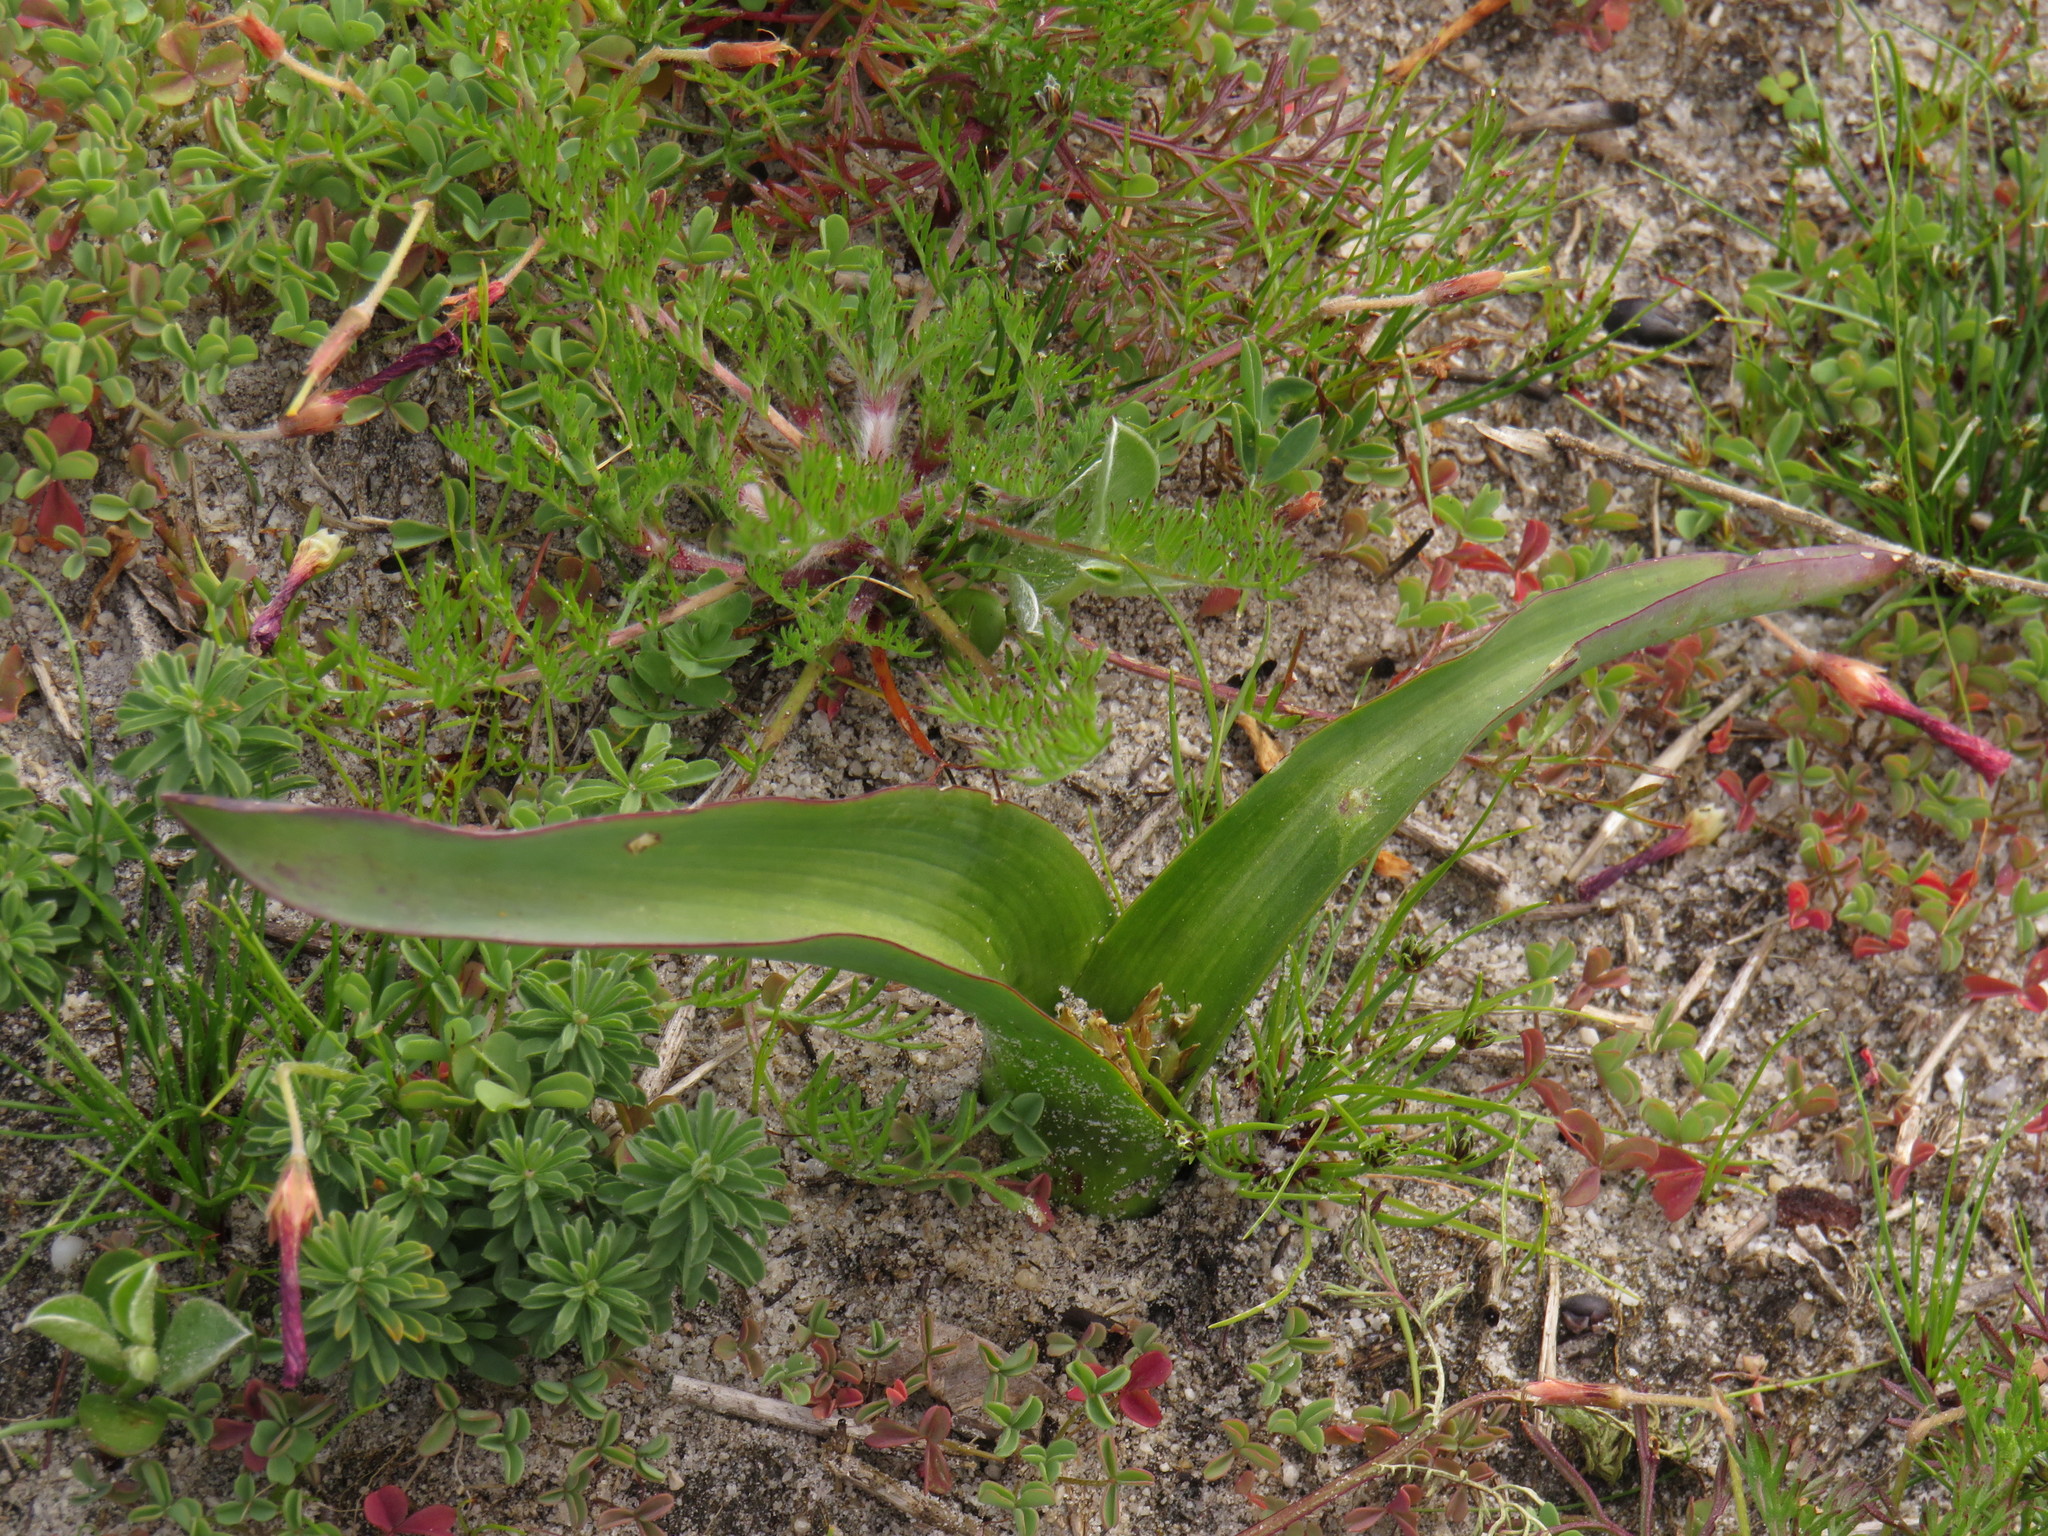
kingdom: Plantae
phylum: Tracheophyta
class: Liliopsida
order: Asparagales
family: Asparagaceae
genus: Lachenalia
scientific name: Lachenalia reflexa
